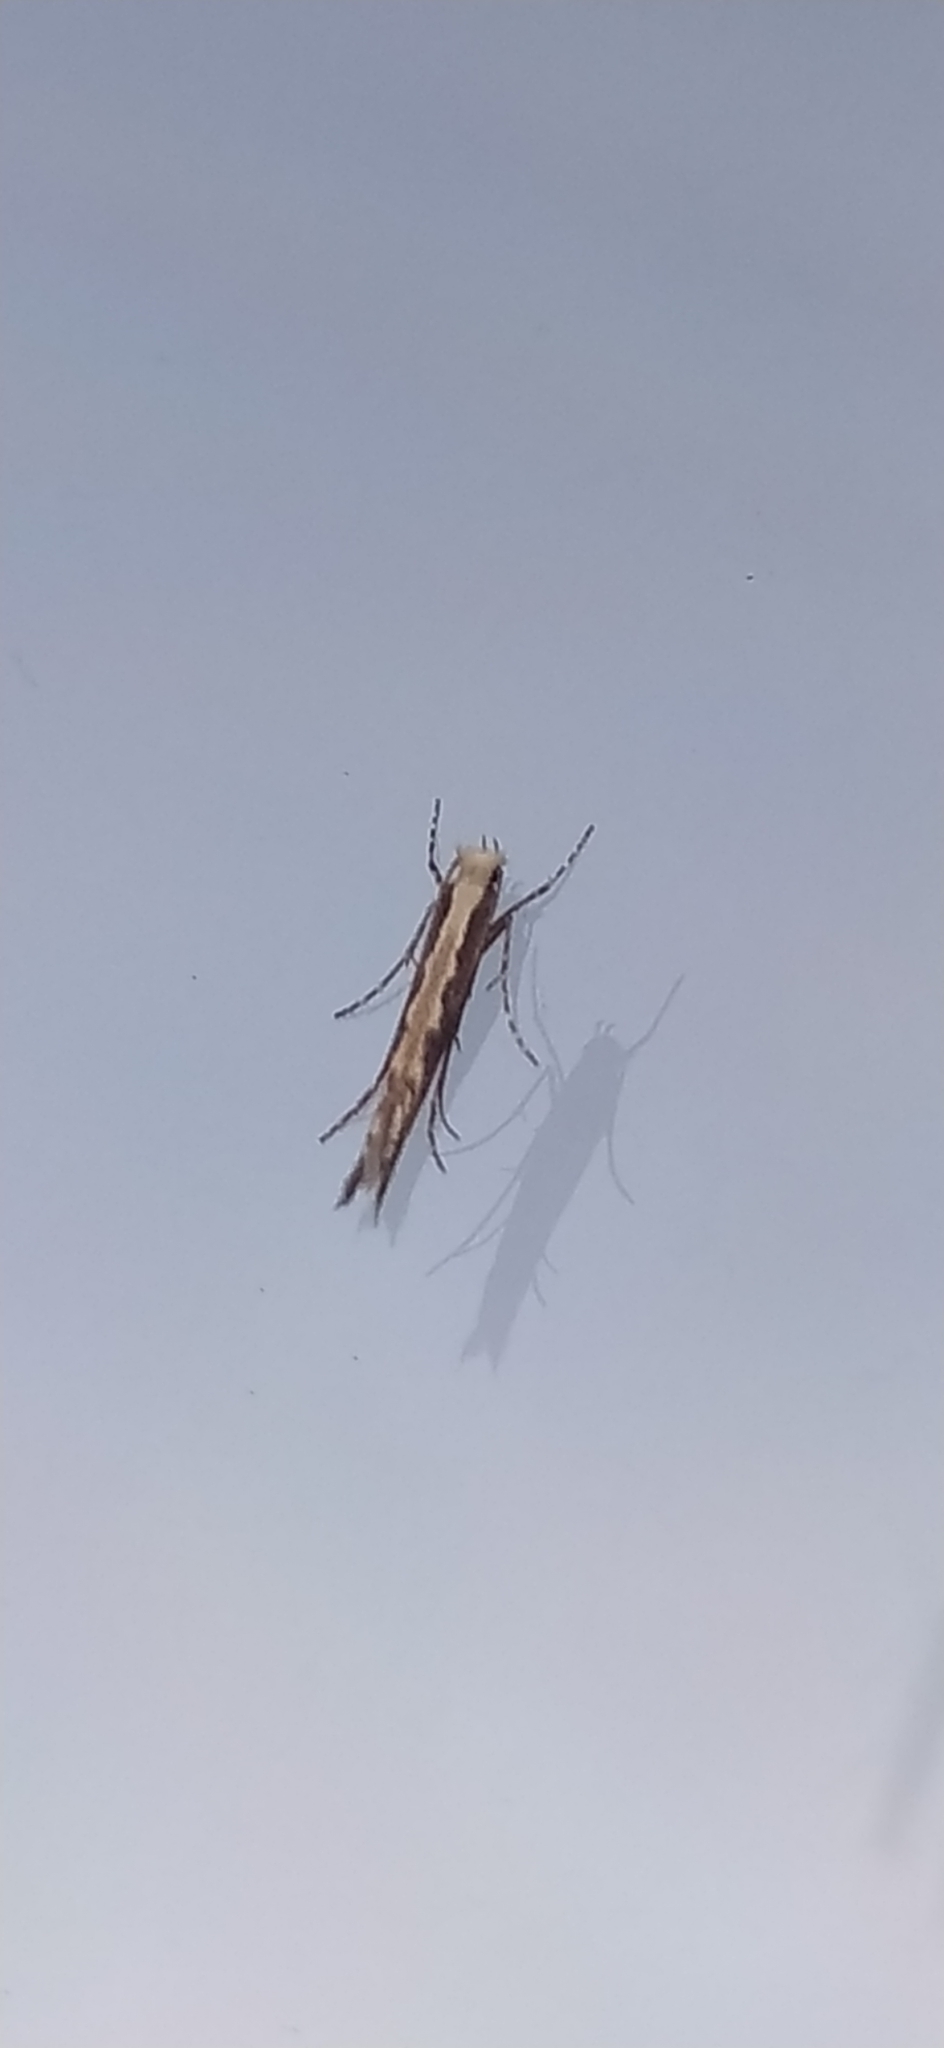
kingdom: Animalia
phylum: Arthropoda
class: Insecta
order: Lepidoptera
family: Gracillariidae
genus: Micrurapteryx
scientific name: Micrurapteryx gradatella
